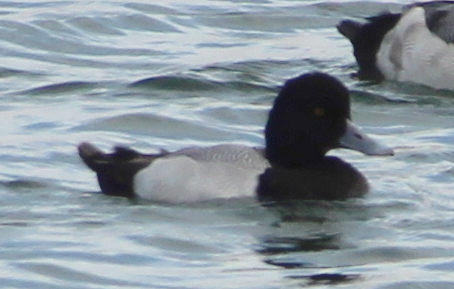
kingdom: Animalia
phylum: Chordata
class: Aves
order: Anseriformes
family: Anatidae
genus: Aythya
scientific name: Aythya affinis
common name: Lesser scaup
